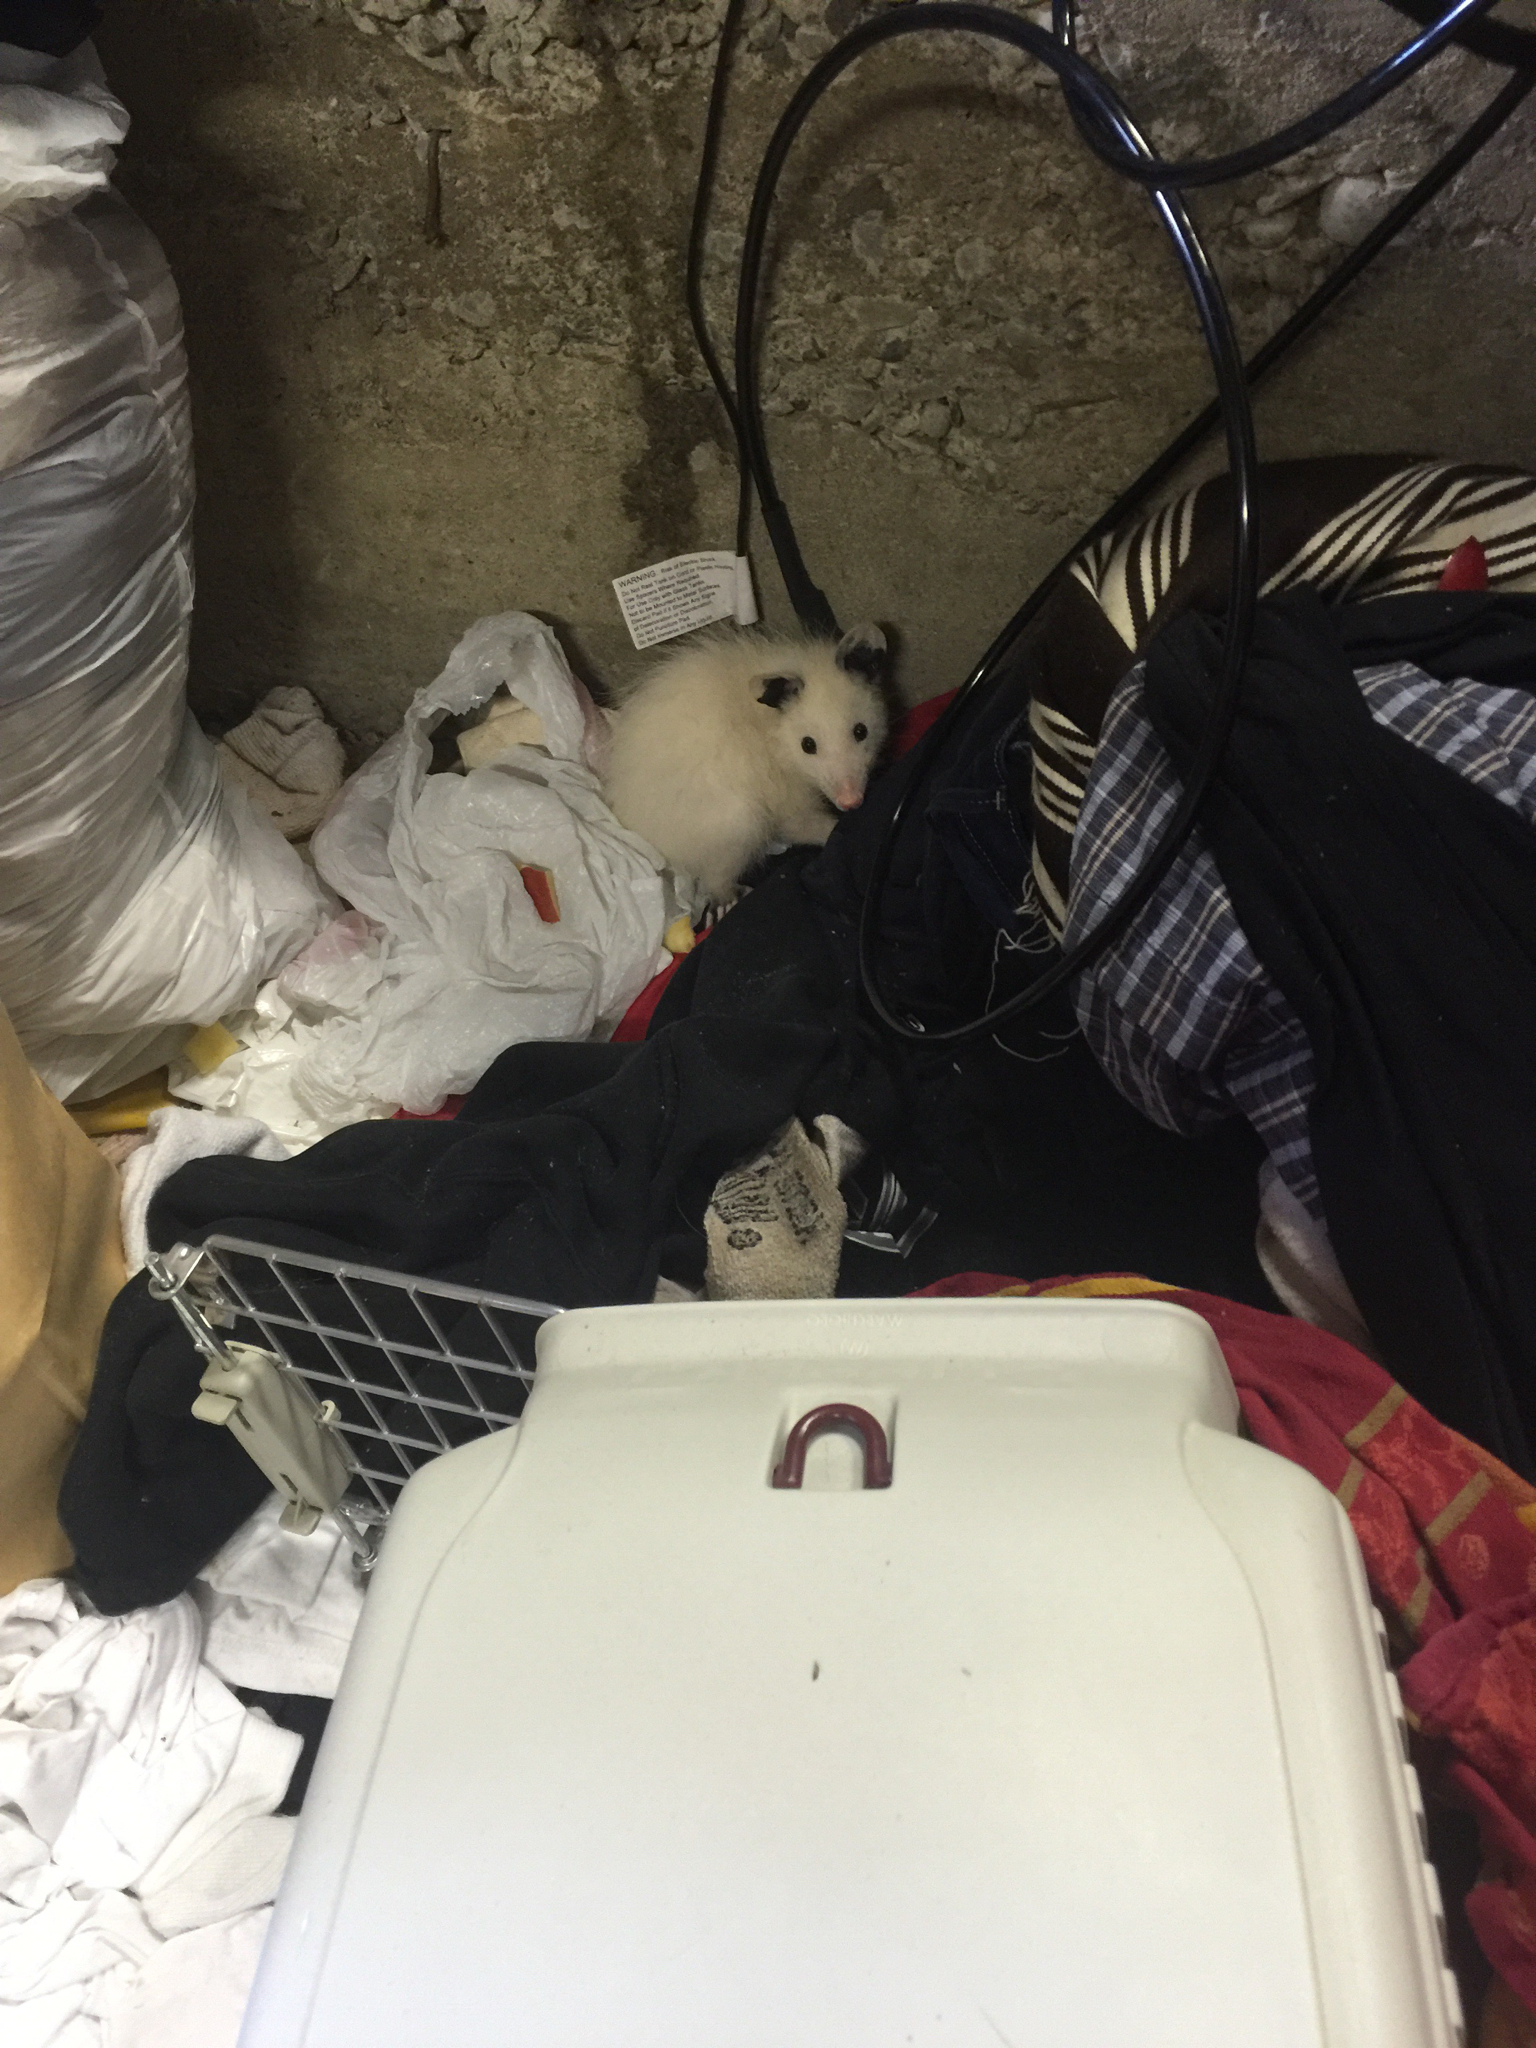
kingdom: Animalia
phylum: Chordata
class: Mammalia
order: Didelphimorphia
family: Didelphidae
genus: Didelphis
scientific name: Didelphis virginiana
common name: Virginia opossum
